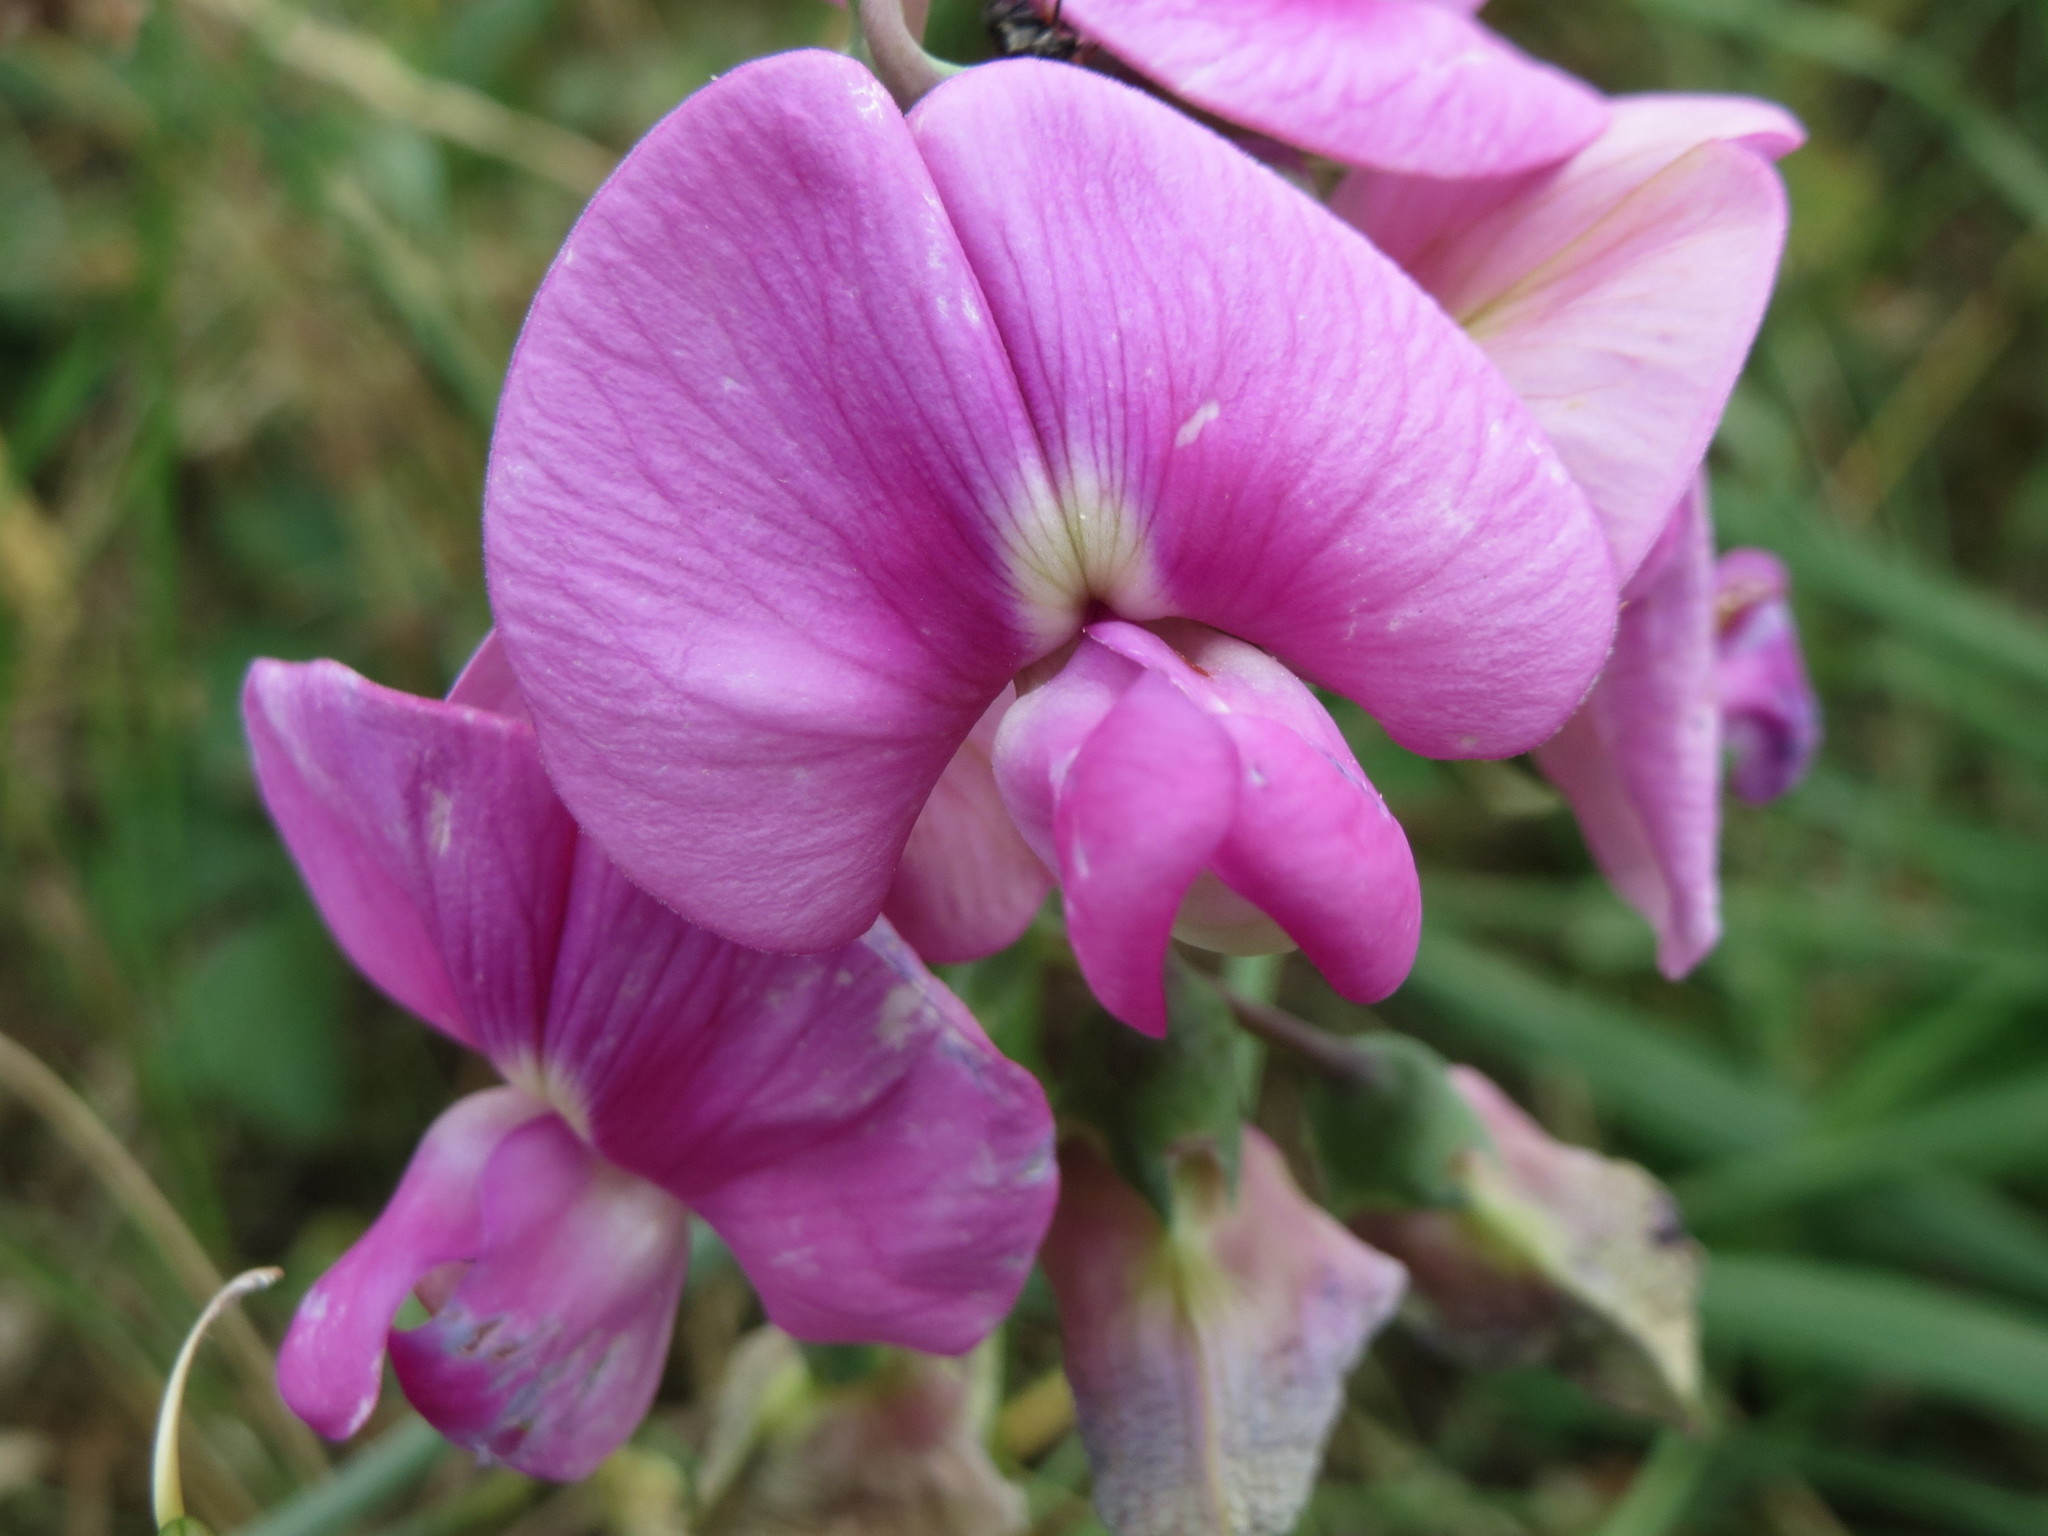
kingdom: Plantae
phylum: Tracheophyta
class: Magnoliopsida
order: Fabales
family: Fabaceae
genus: Lathyrus
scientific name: Lathyrus latifolius
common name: Perennial pea
